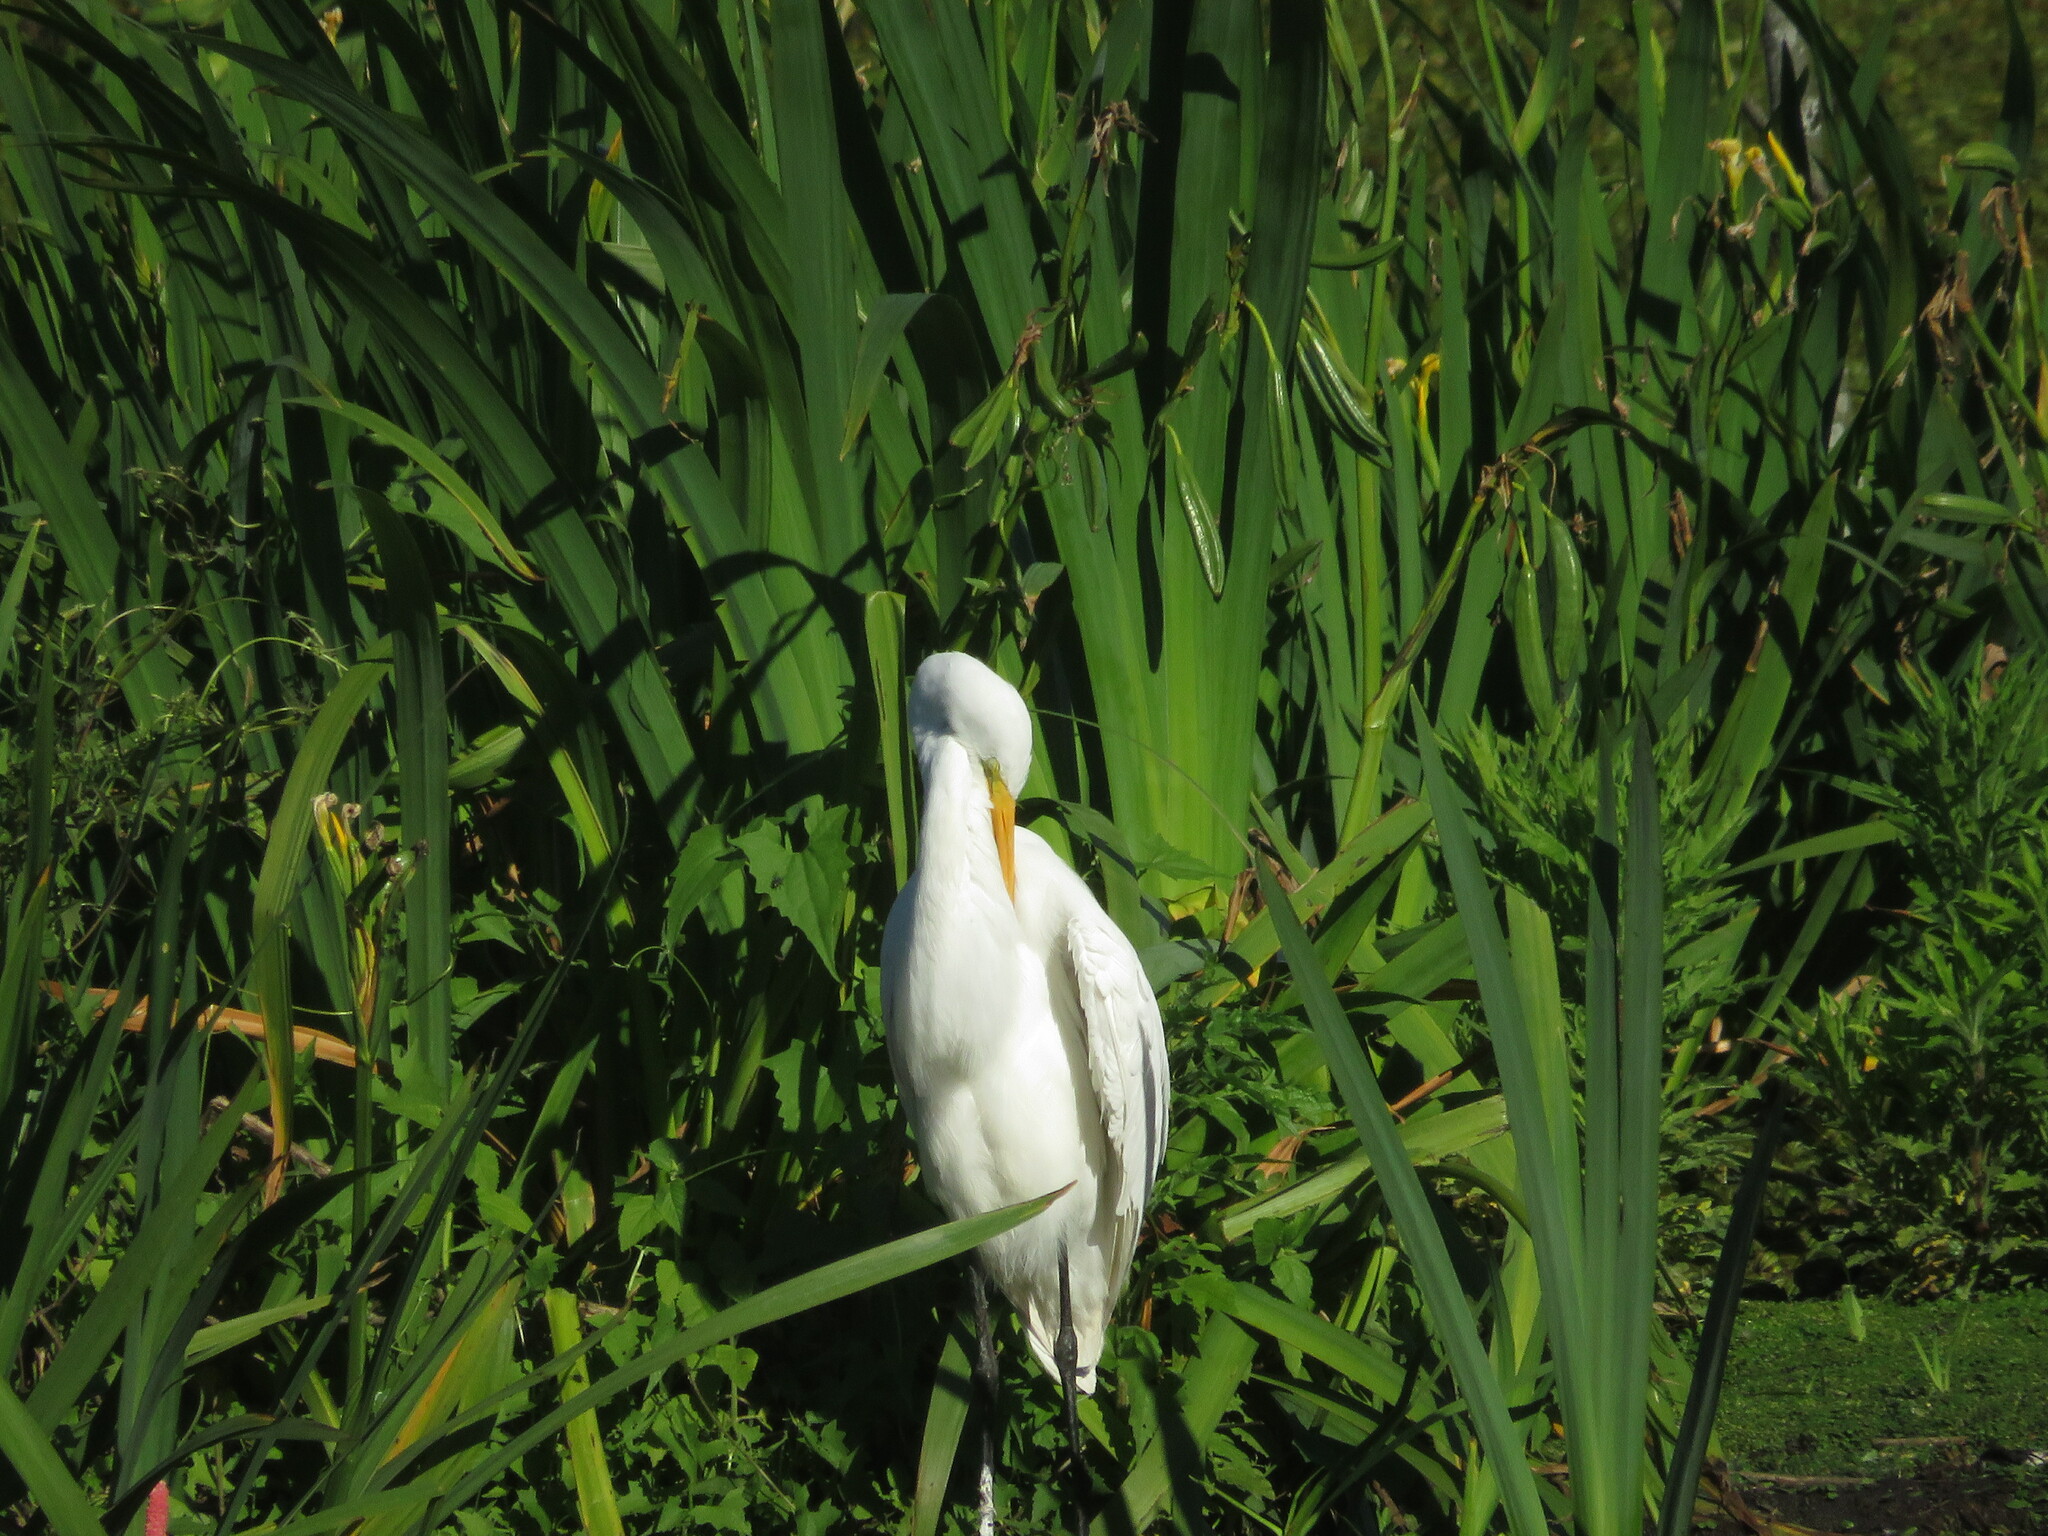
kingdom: Animalia
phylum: Chordata
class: Aves
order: Pelecaniformes
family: Ardeidae
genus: Ardea
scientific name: Ardea alba
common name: Great egret
